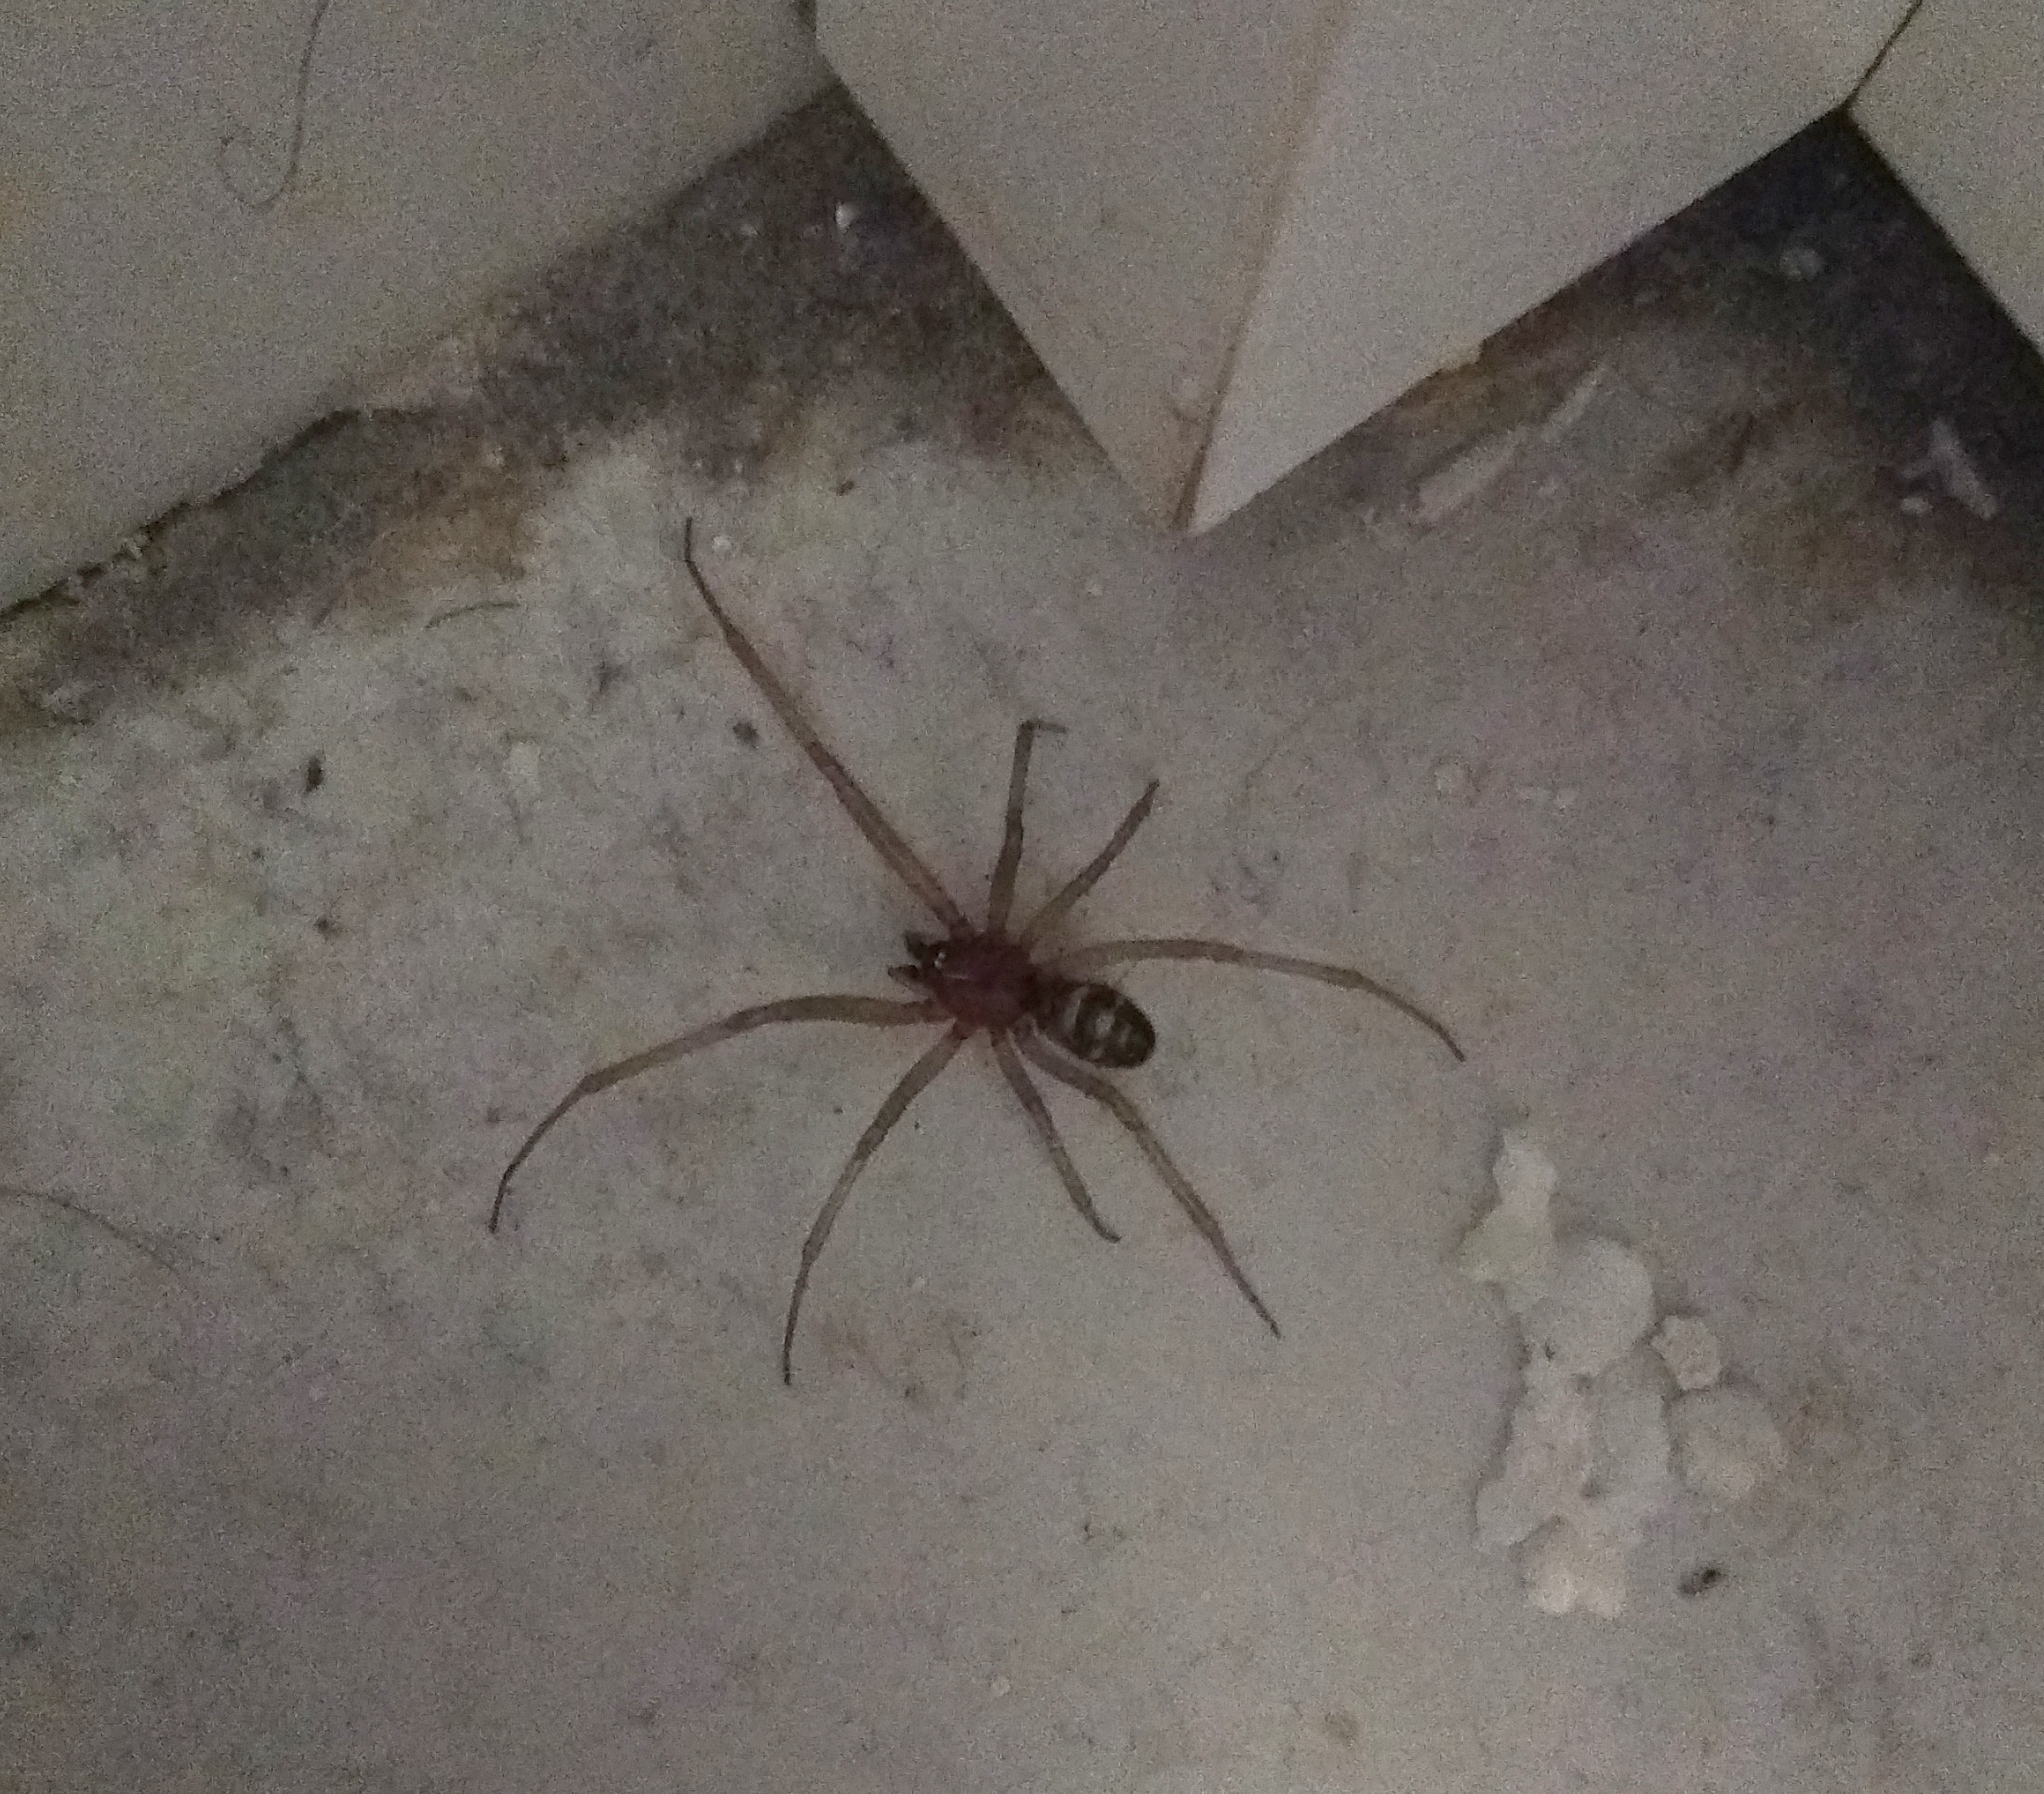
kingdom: Animalia
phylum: Arthropoda
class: Arachnida
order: Araneae
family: Theridiidae
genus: Steatoda
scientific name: Steatoda grossa
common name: False black widow
